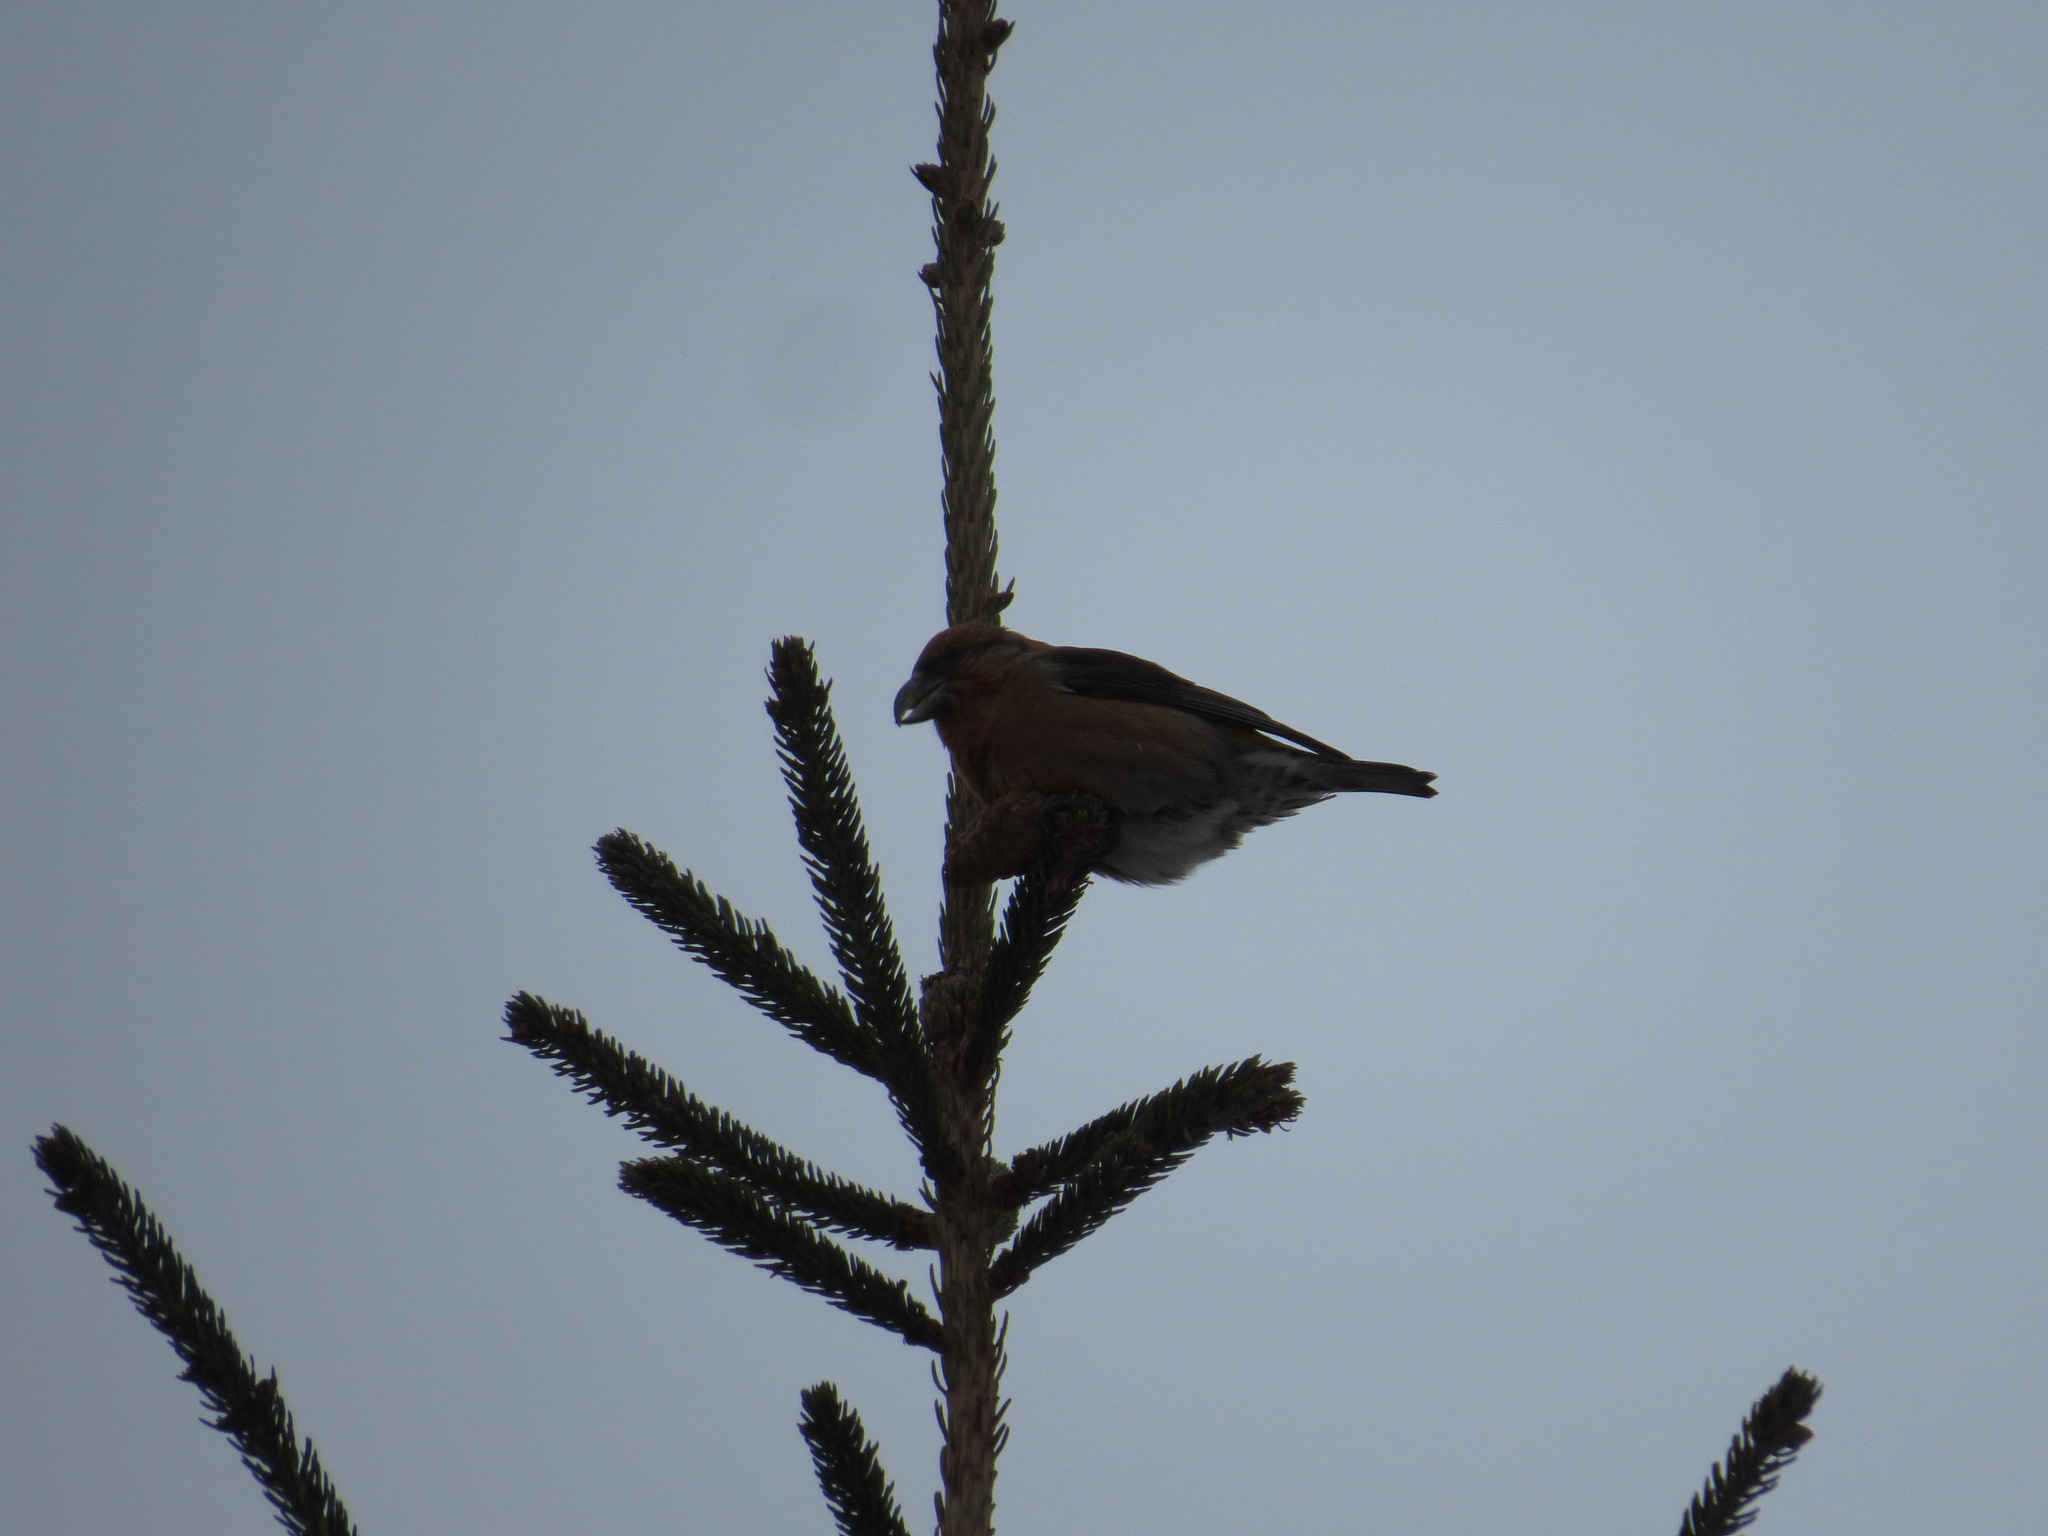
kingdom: Animalia
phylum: Chordata
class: Aves
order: Passeriformes
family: Fringillidae
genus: Loxia
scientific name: Loxia curvirostra
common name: Red crossbill
